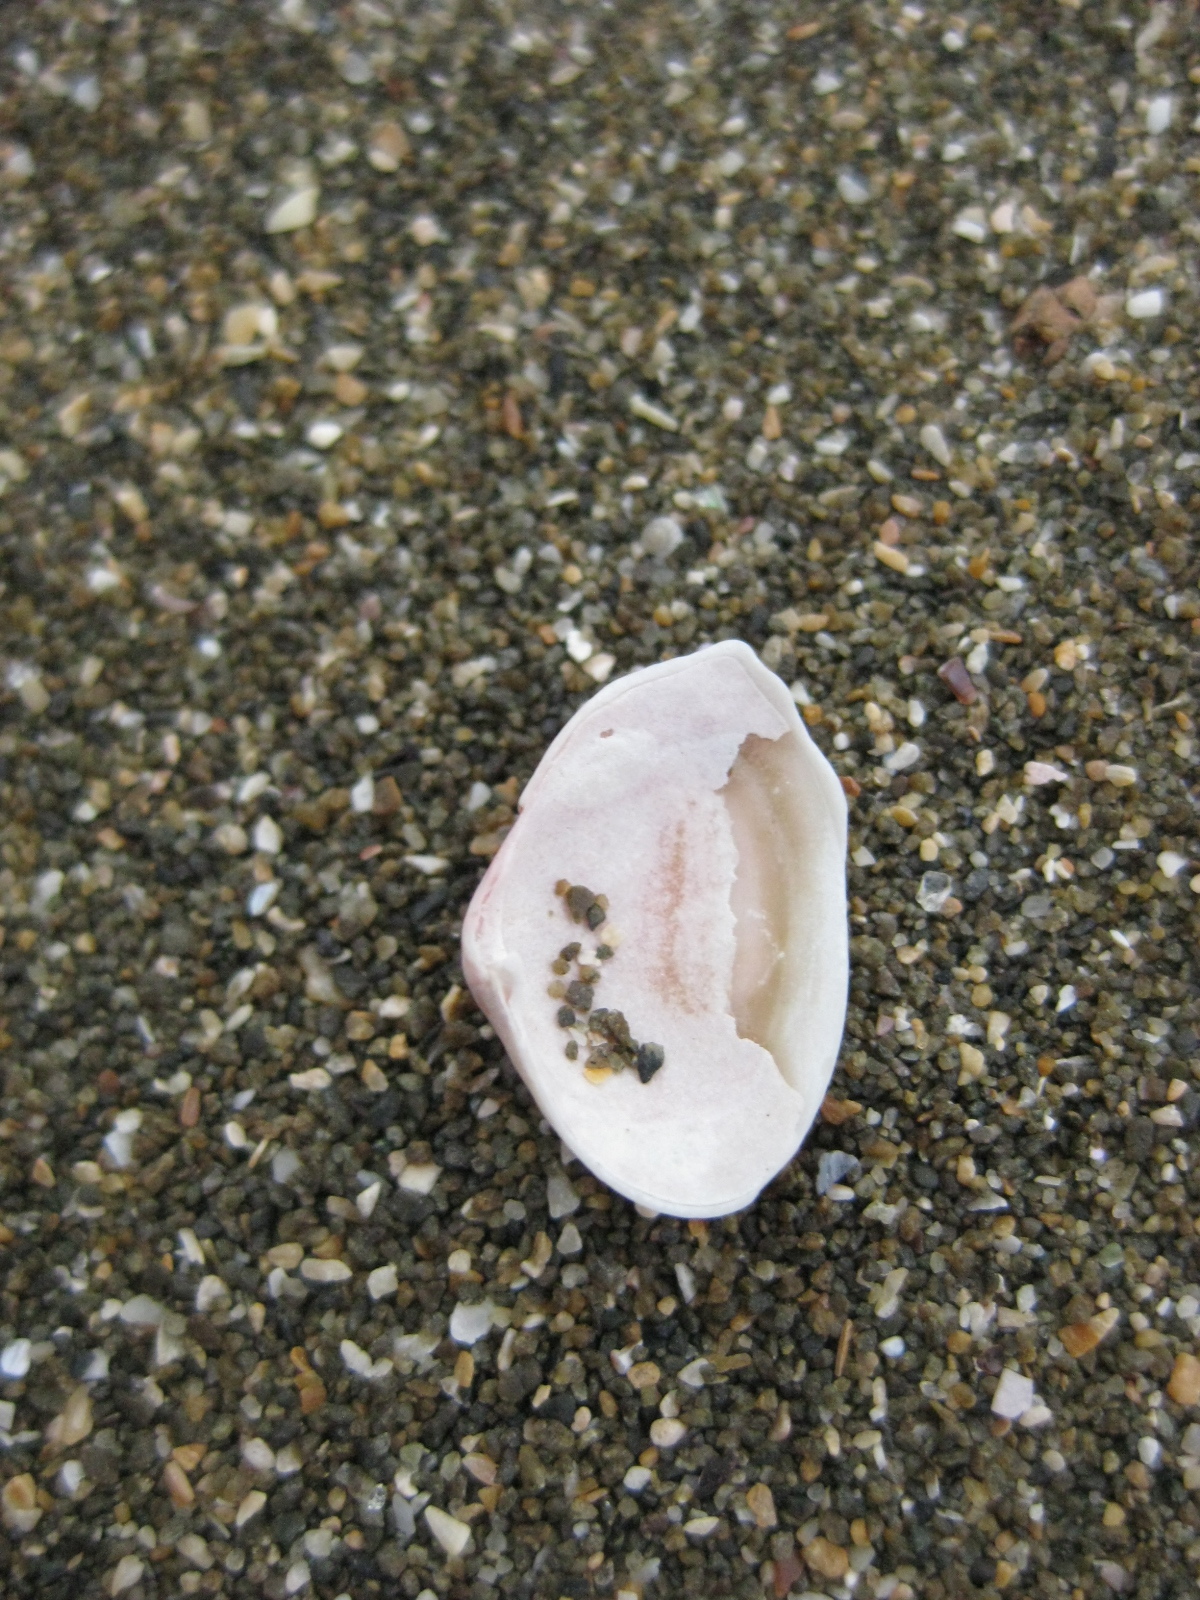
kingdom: Animalia
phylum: Mollusca
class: Bivalvia
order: Myida
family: Corbulidae
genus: Corbula
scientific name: Corbula zelandica
